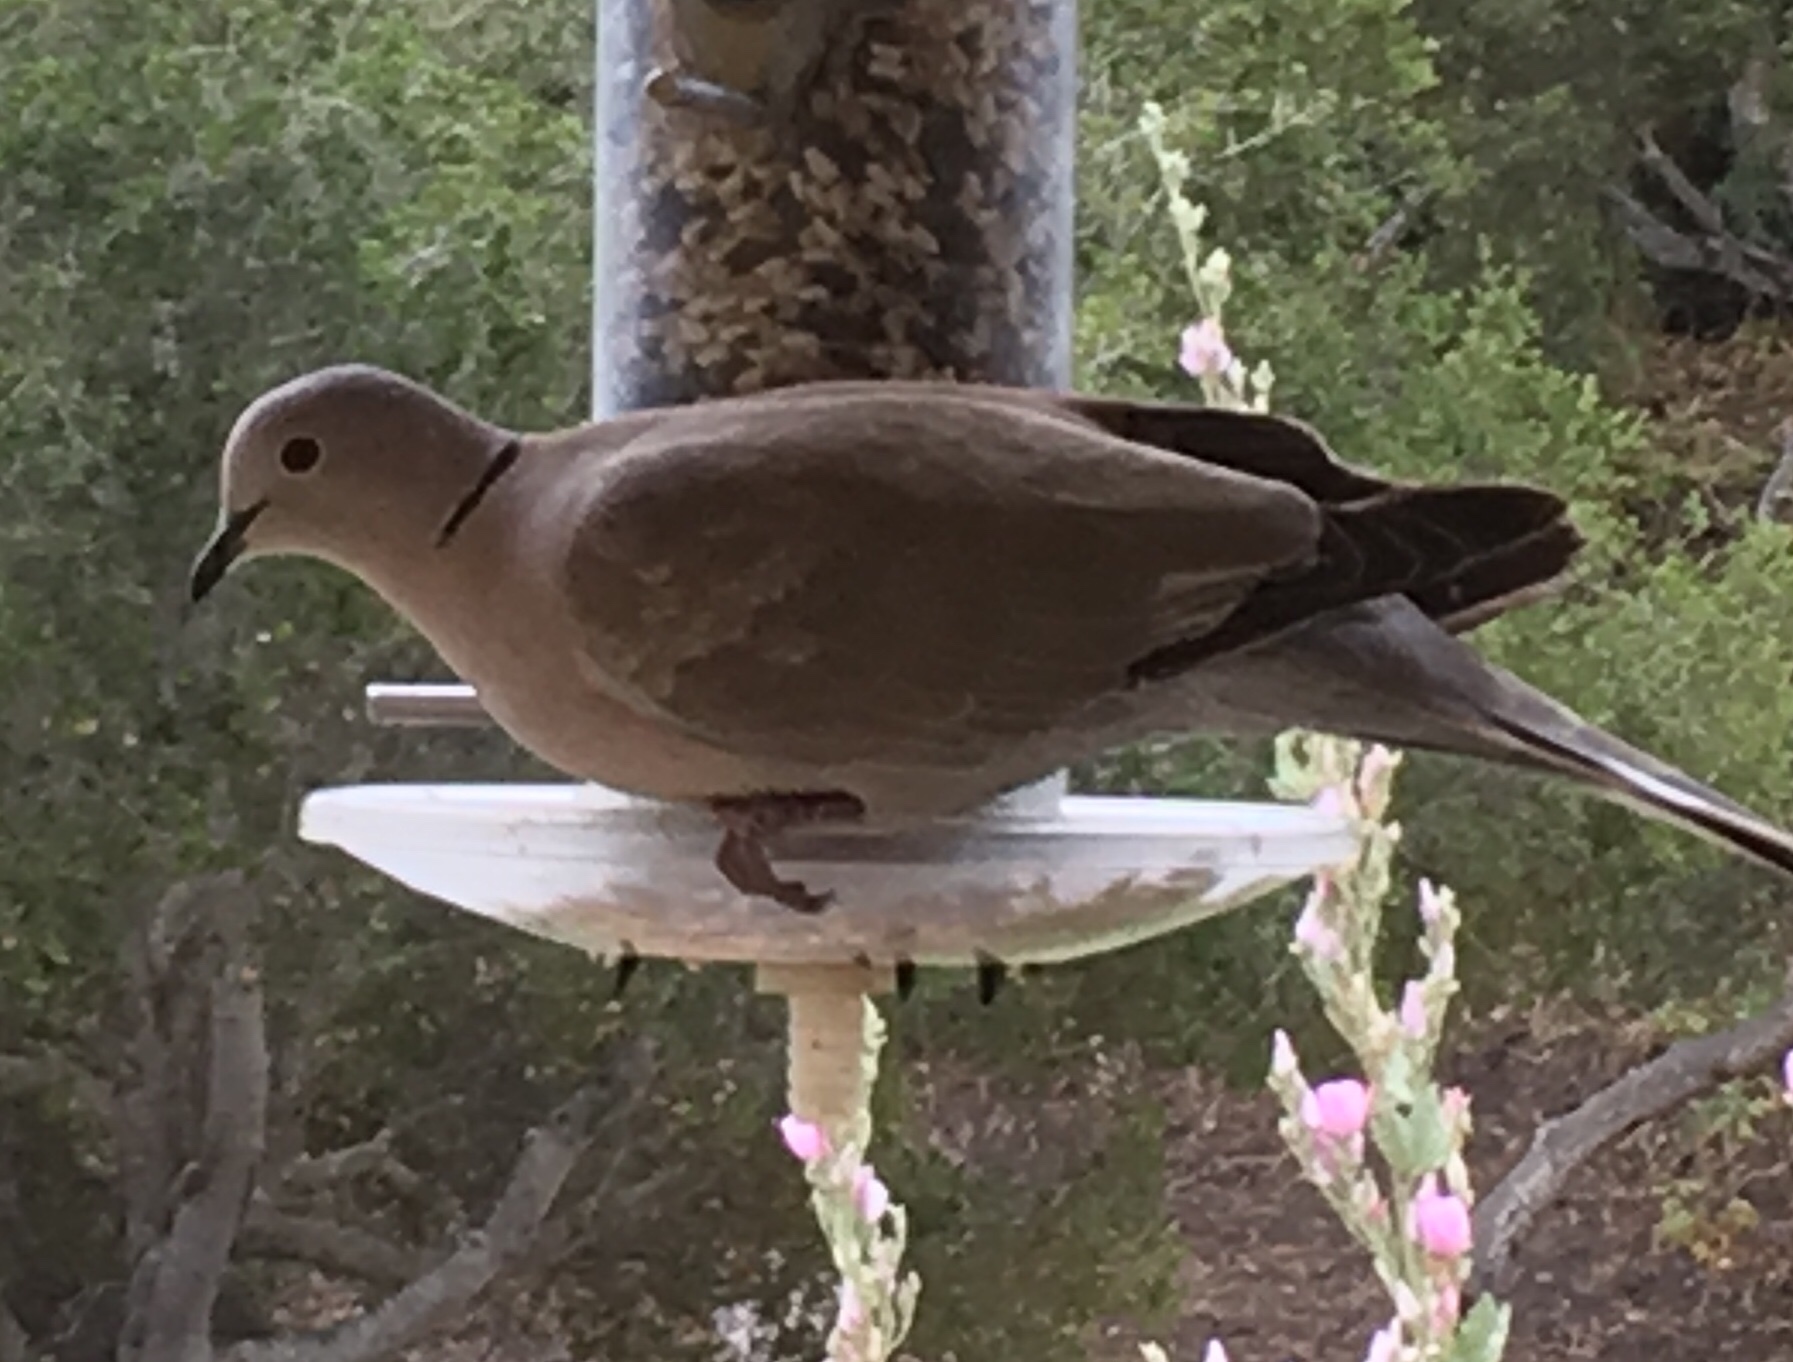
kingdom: Animalia
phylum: Chordata
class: Aves
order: Columbiformes
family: Columbidae
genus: Streptopelia
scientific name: Streptopelia decaocto
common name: Eurasian collared dove
